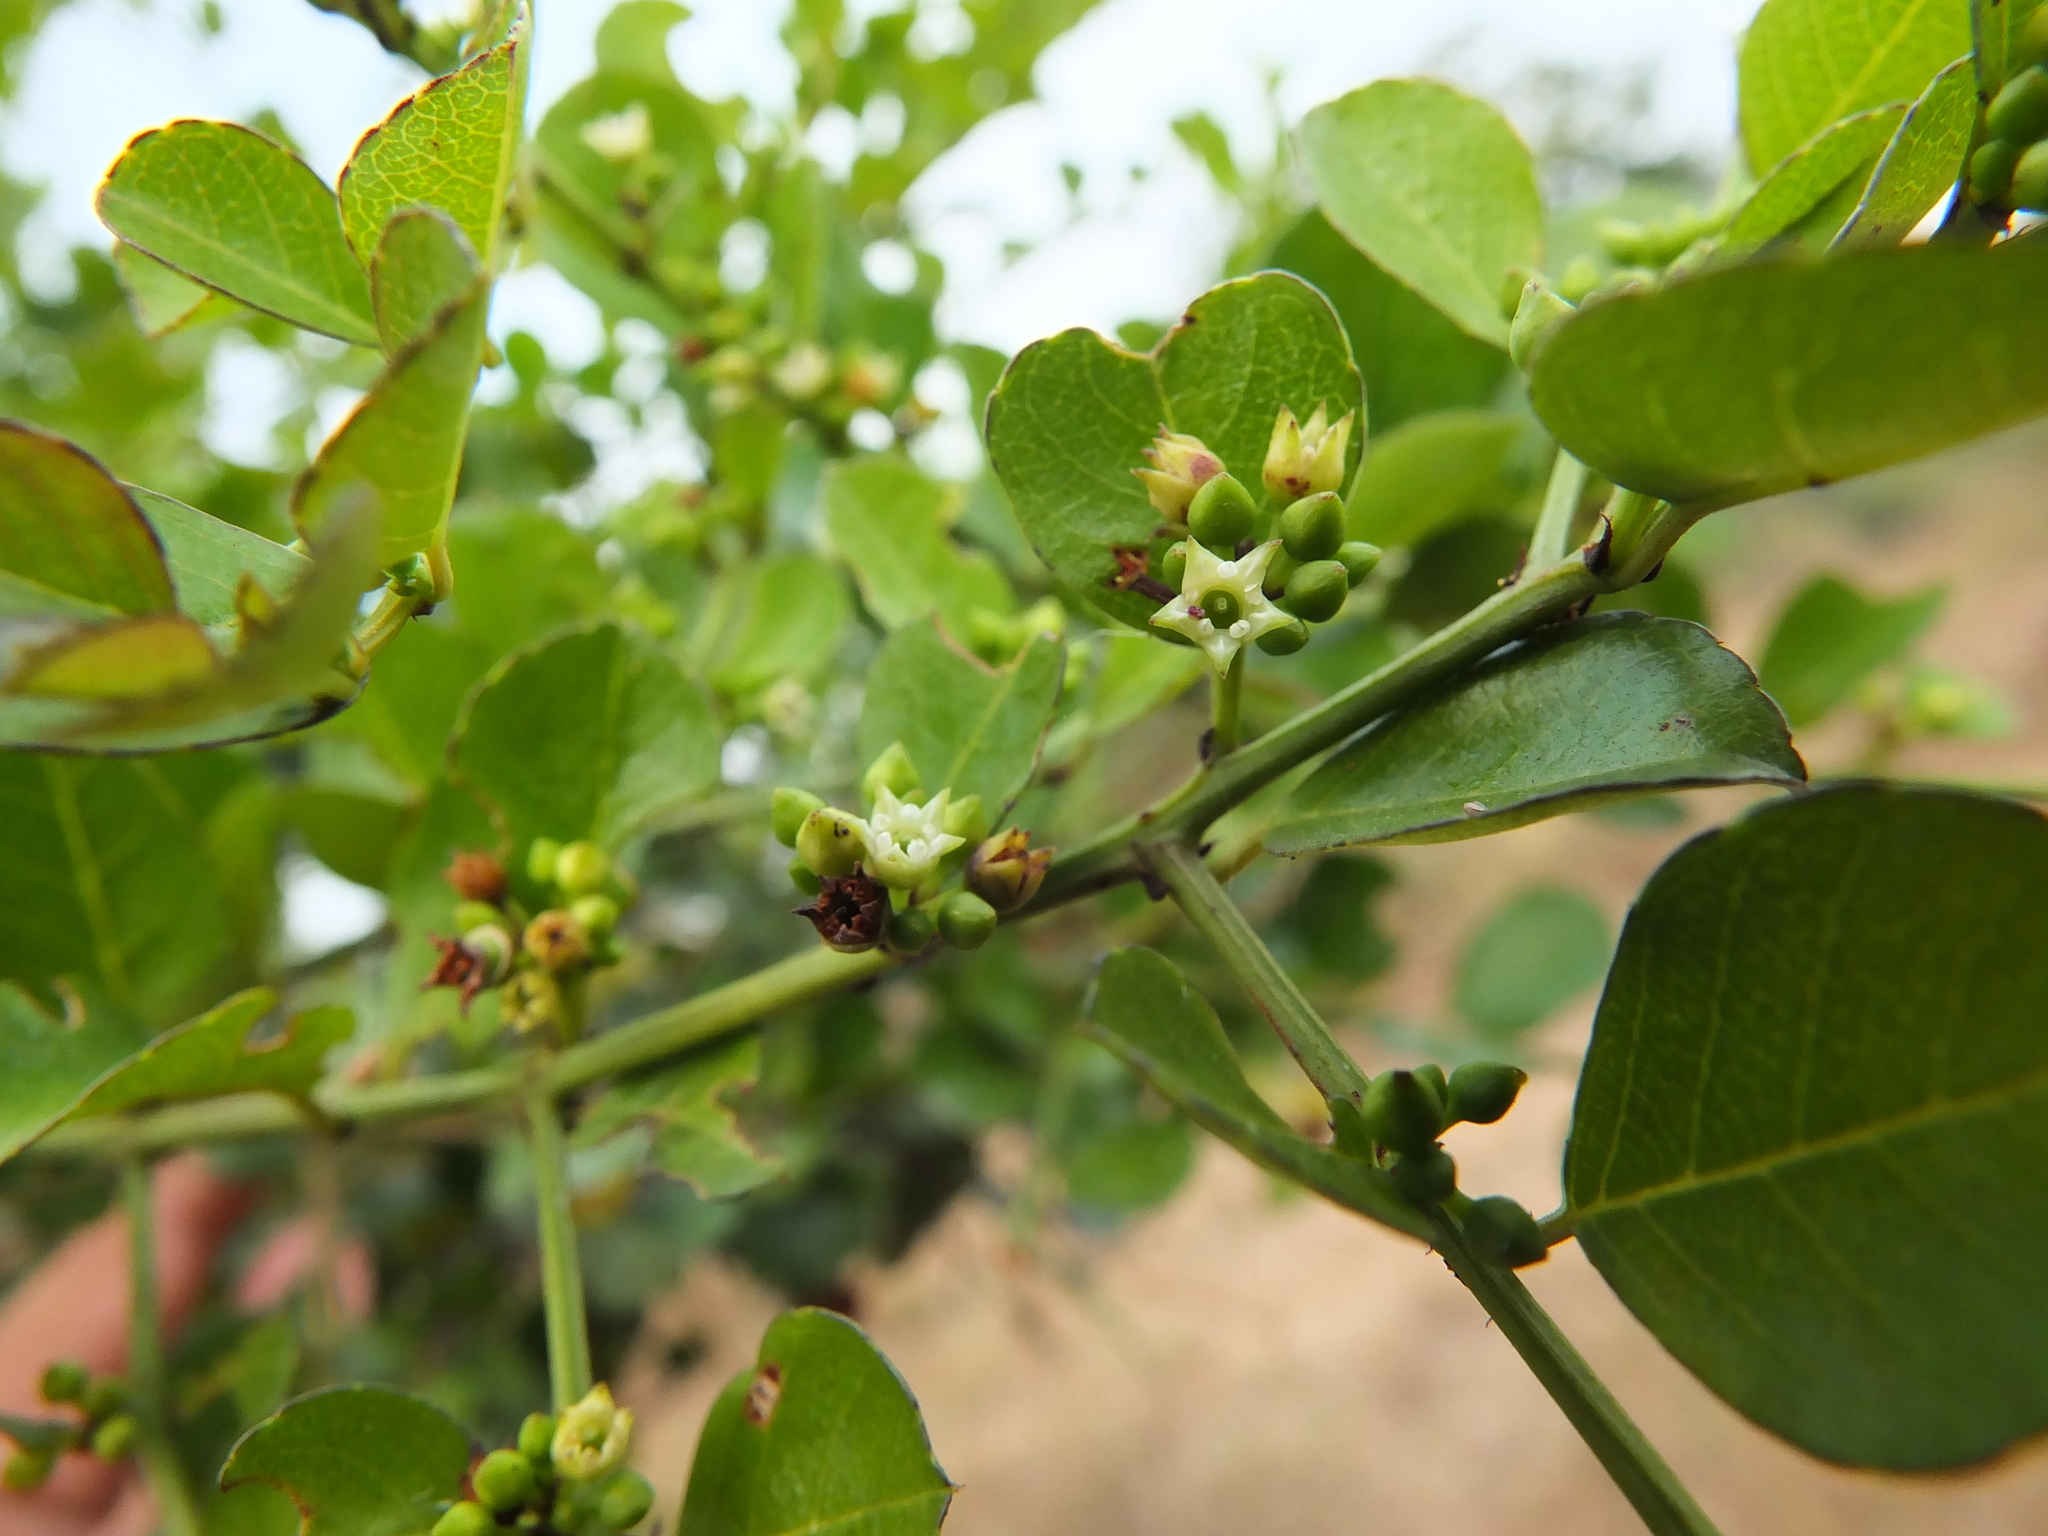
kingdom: Plantae
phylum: Tracheophyta
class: Magnoliopsida
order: Rosales
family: Rhamnaceae
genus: Scutia
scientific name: Scutia myrtina
